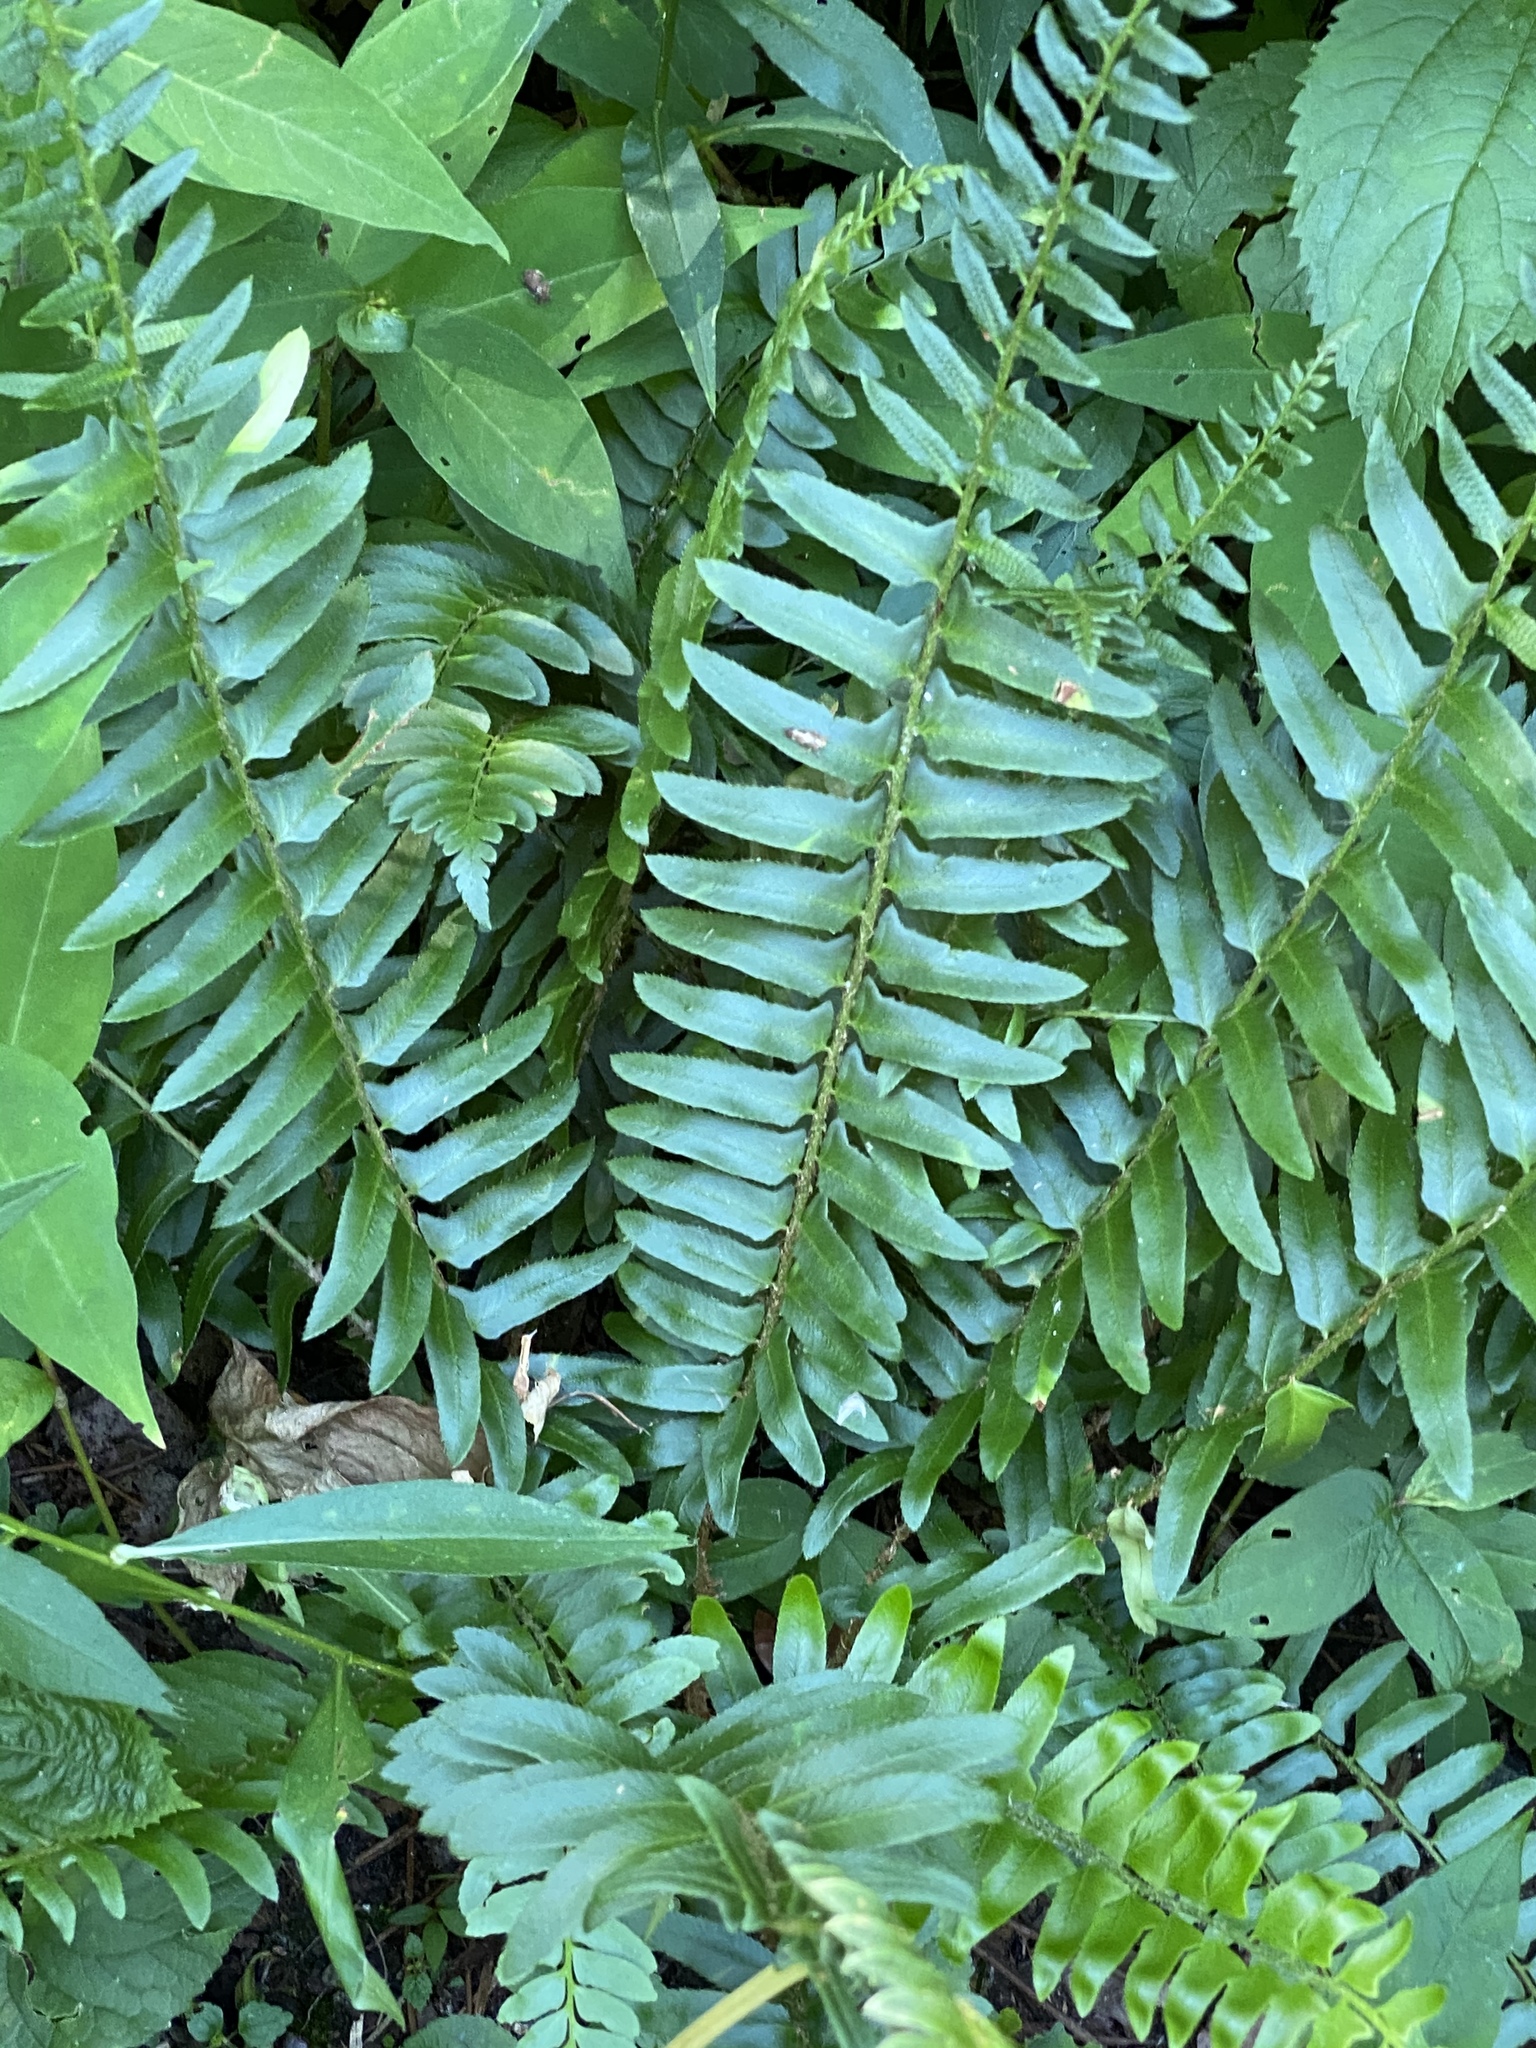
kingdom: Plantae
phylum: Tracheophyta
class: Polypodiopsida
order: Polypodiales
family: Dryopteridaceae
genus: Polystichum
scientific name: Polystichum acrostichoides
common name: Christmas fern
